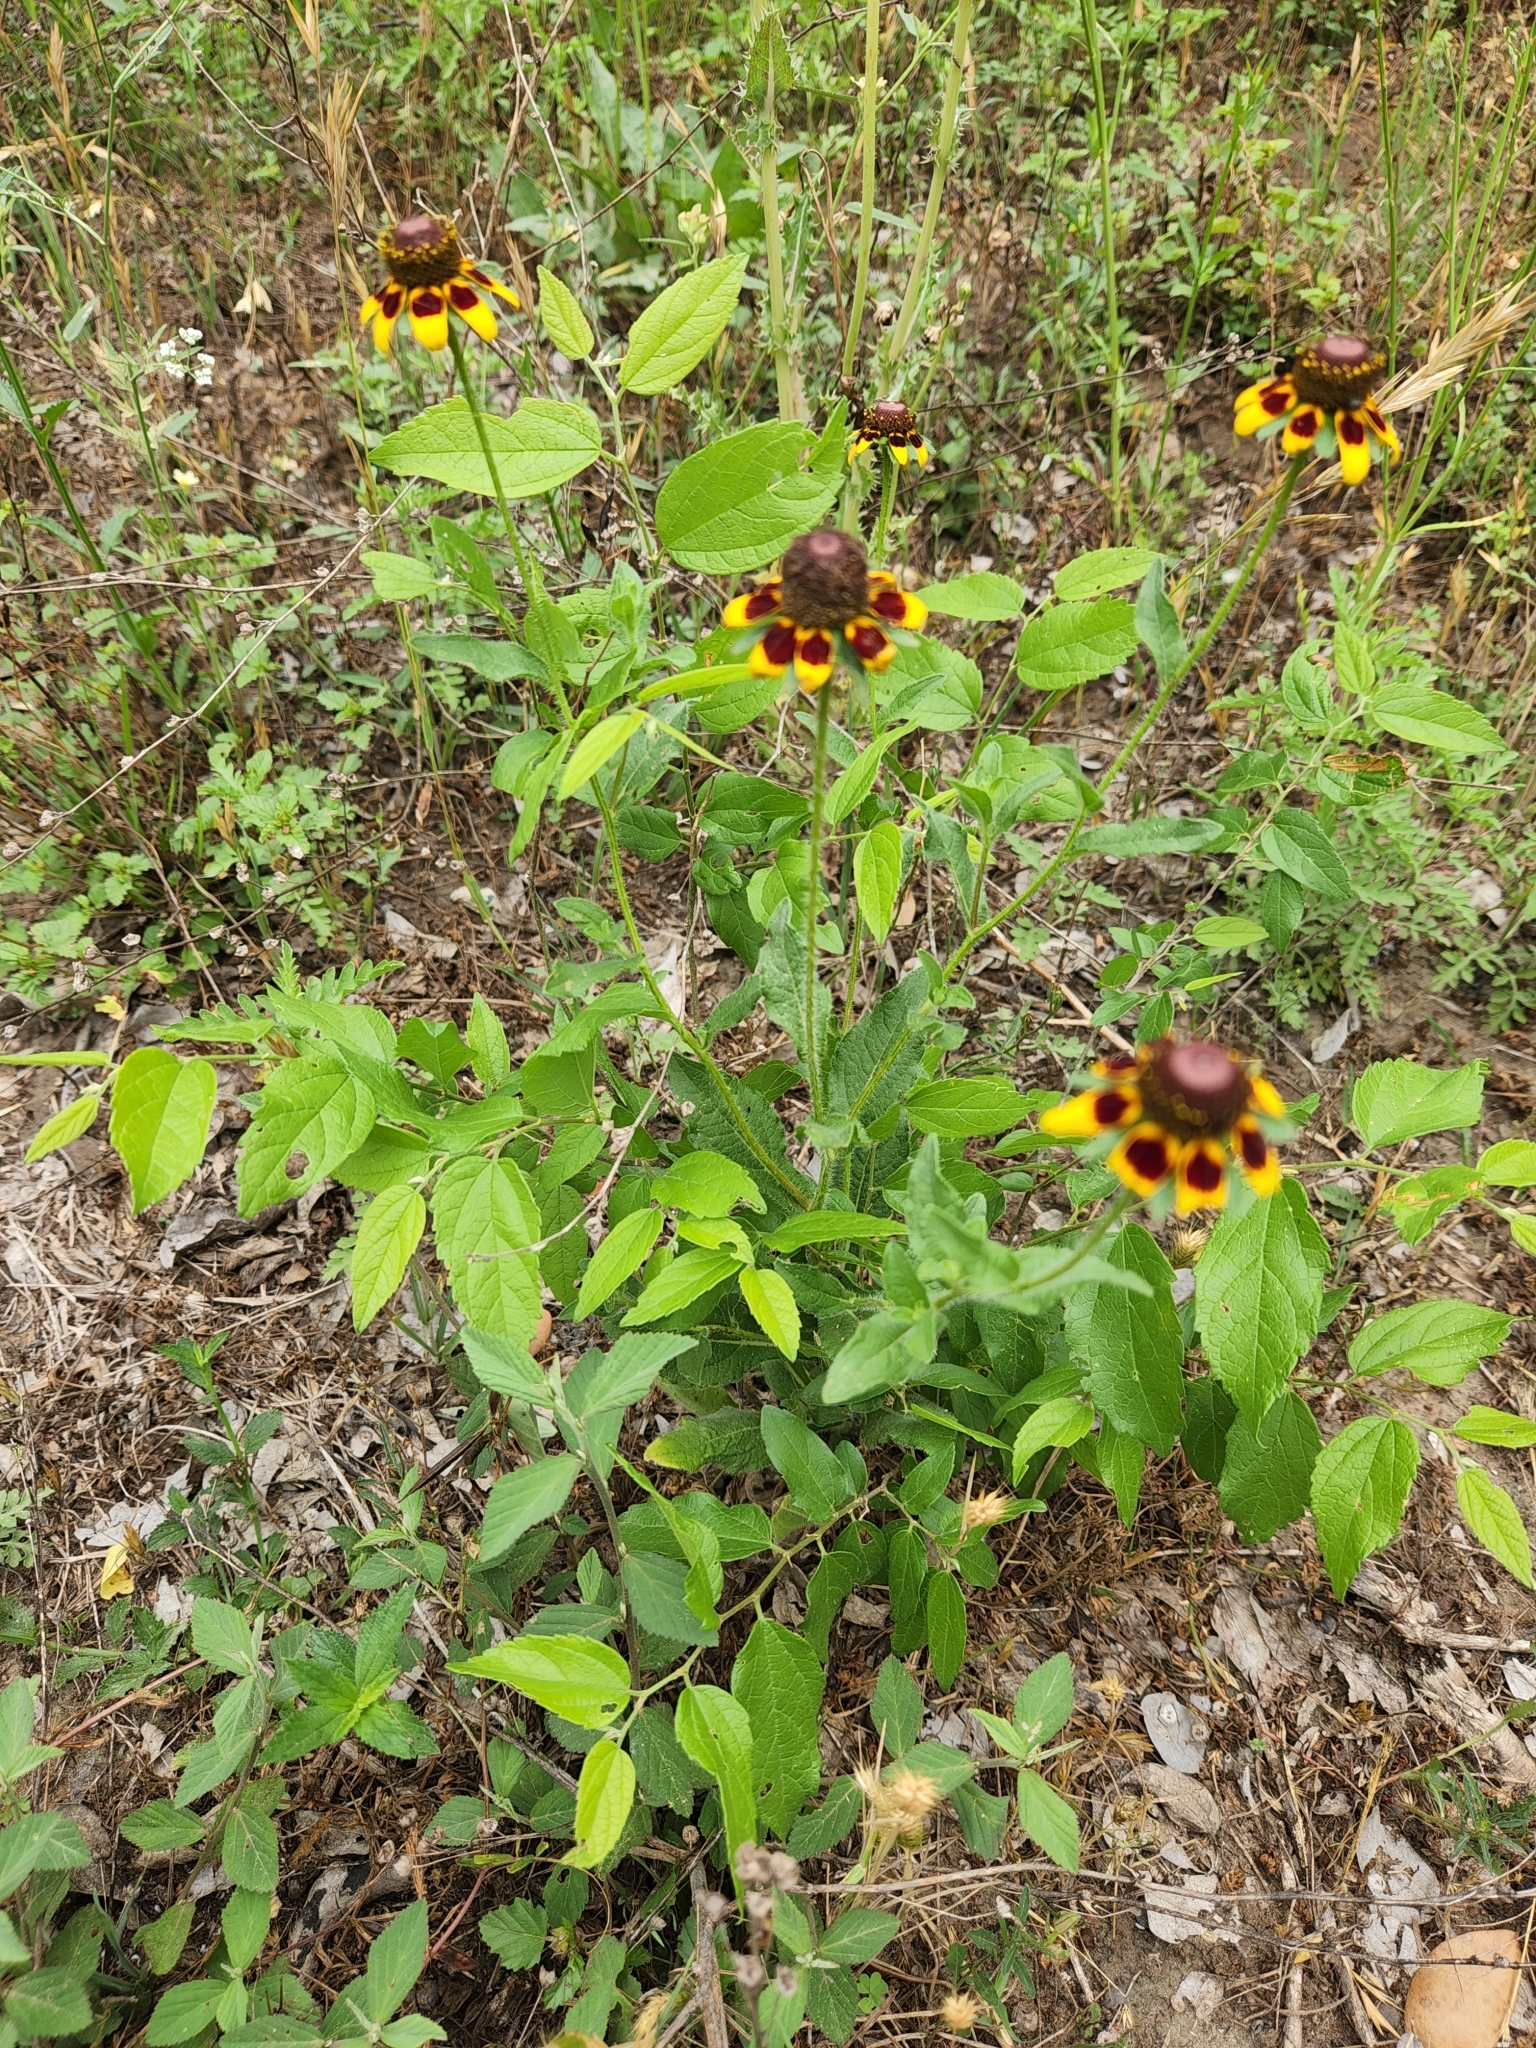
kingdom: Plantae
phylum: Tracheophyta
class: Magnoliopsida
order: Asterales
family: Asteraceae
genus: Rudbeckia
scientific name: Rudbeckia hirta
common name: Black-eyed-susan
